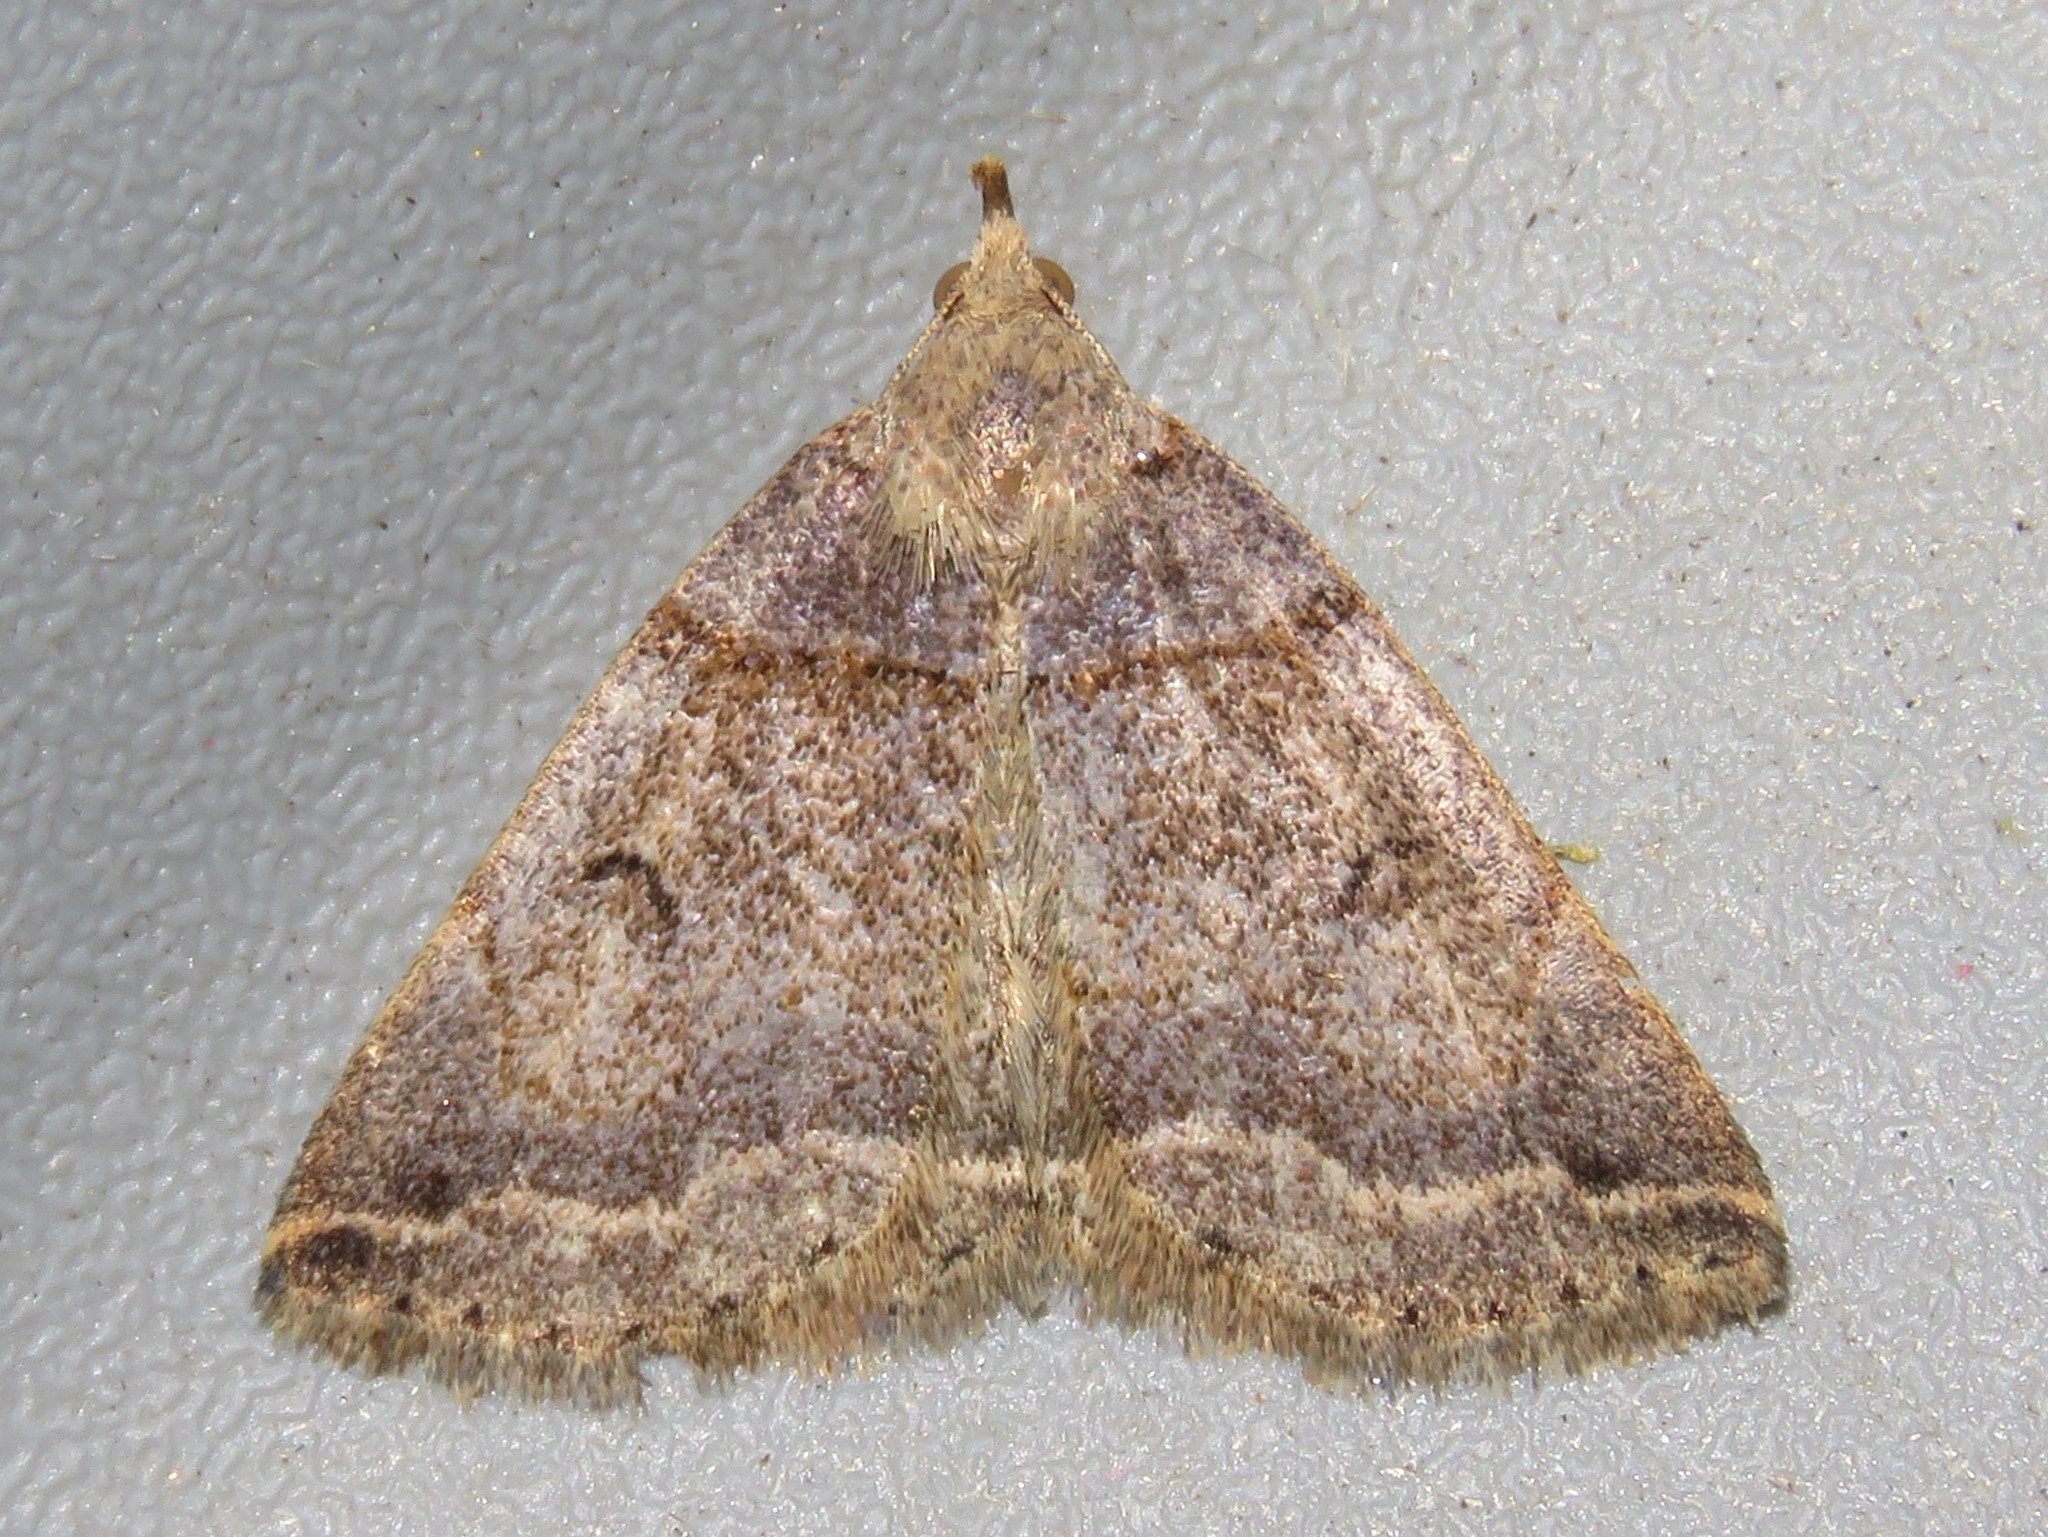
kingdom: Animalia
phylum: Arthropoda
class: Insecta
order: Lepidoptera
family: Erebidae
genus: Zanclognatha
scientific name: Zanclognatha laevigata
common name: Variable fan-foot
